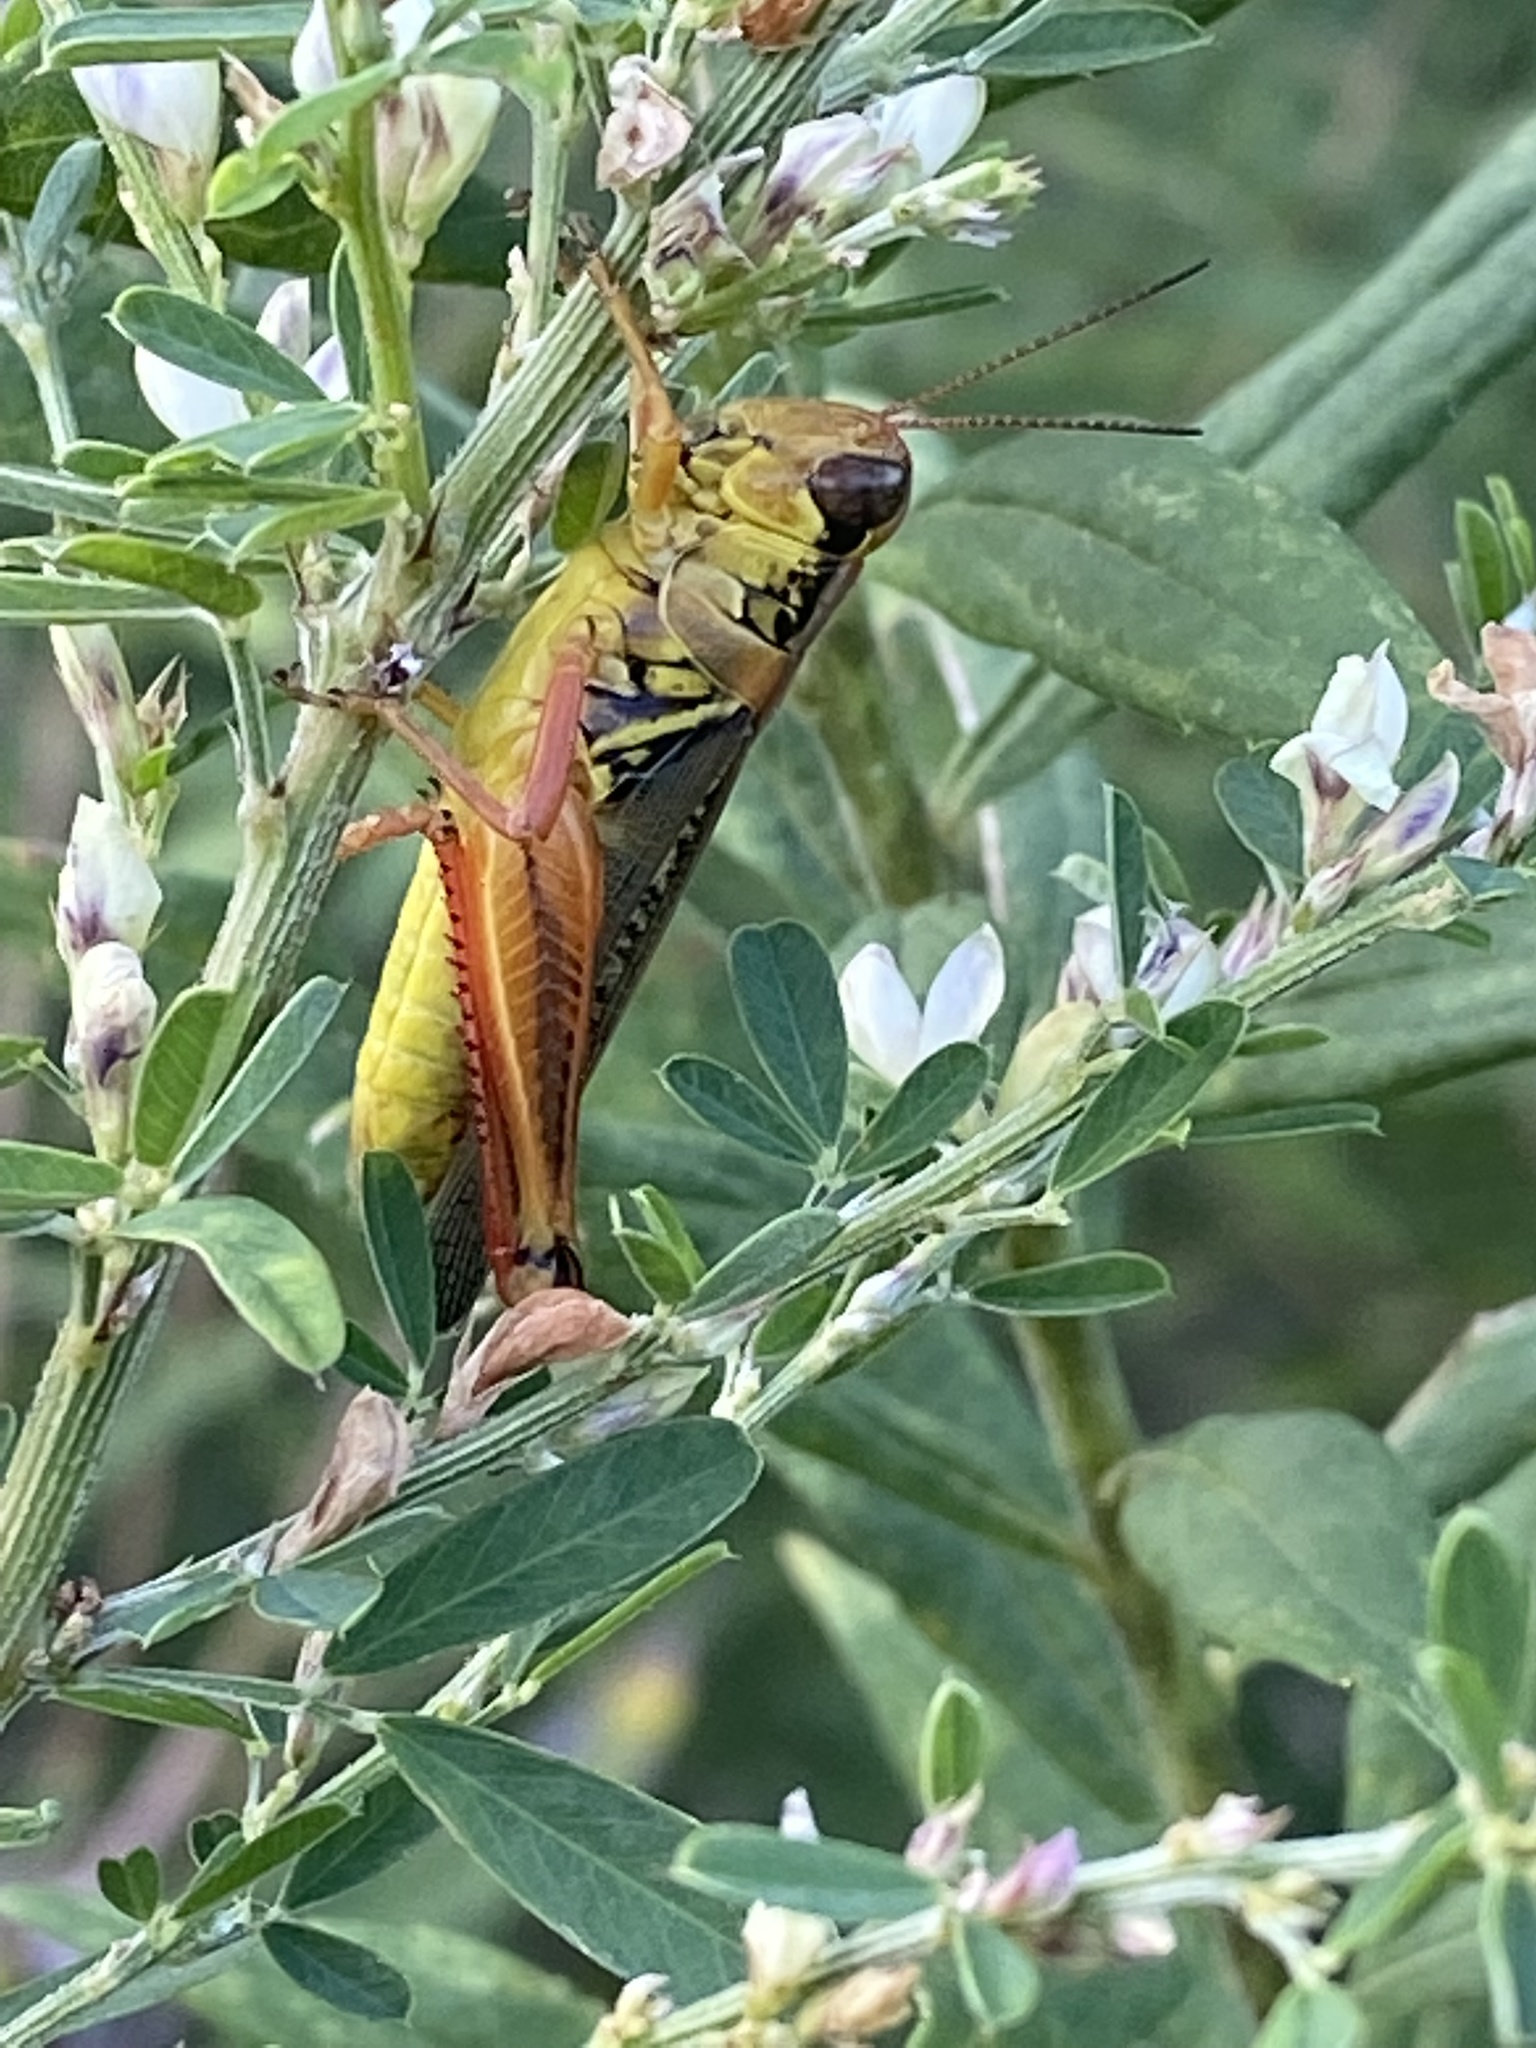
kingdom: Animalia
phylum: Arthropoda
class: Insecta
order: Orthoptera
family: Acrididae
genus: Melanoplus
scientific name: Melanoplus femurrubrum
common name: Red-legged grasshopper
